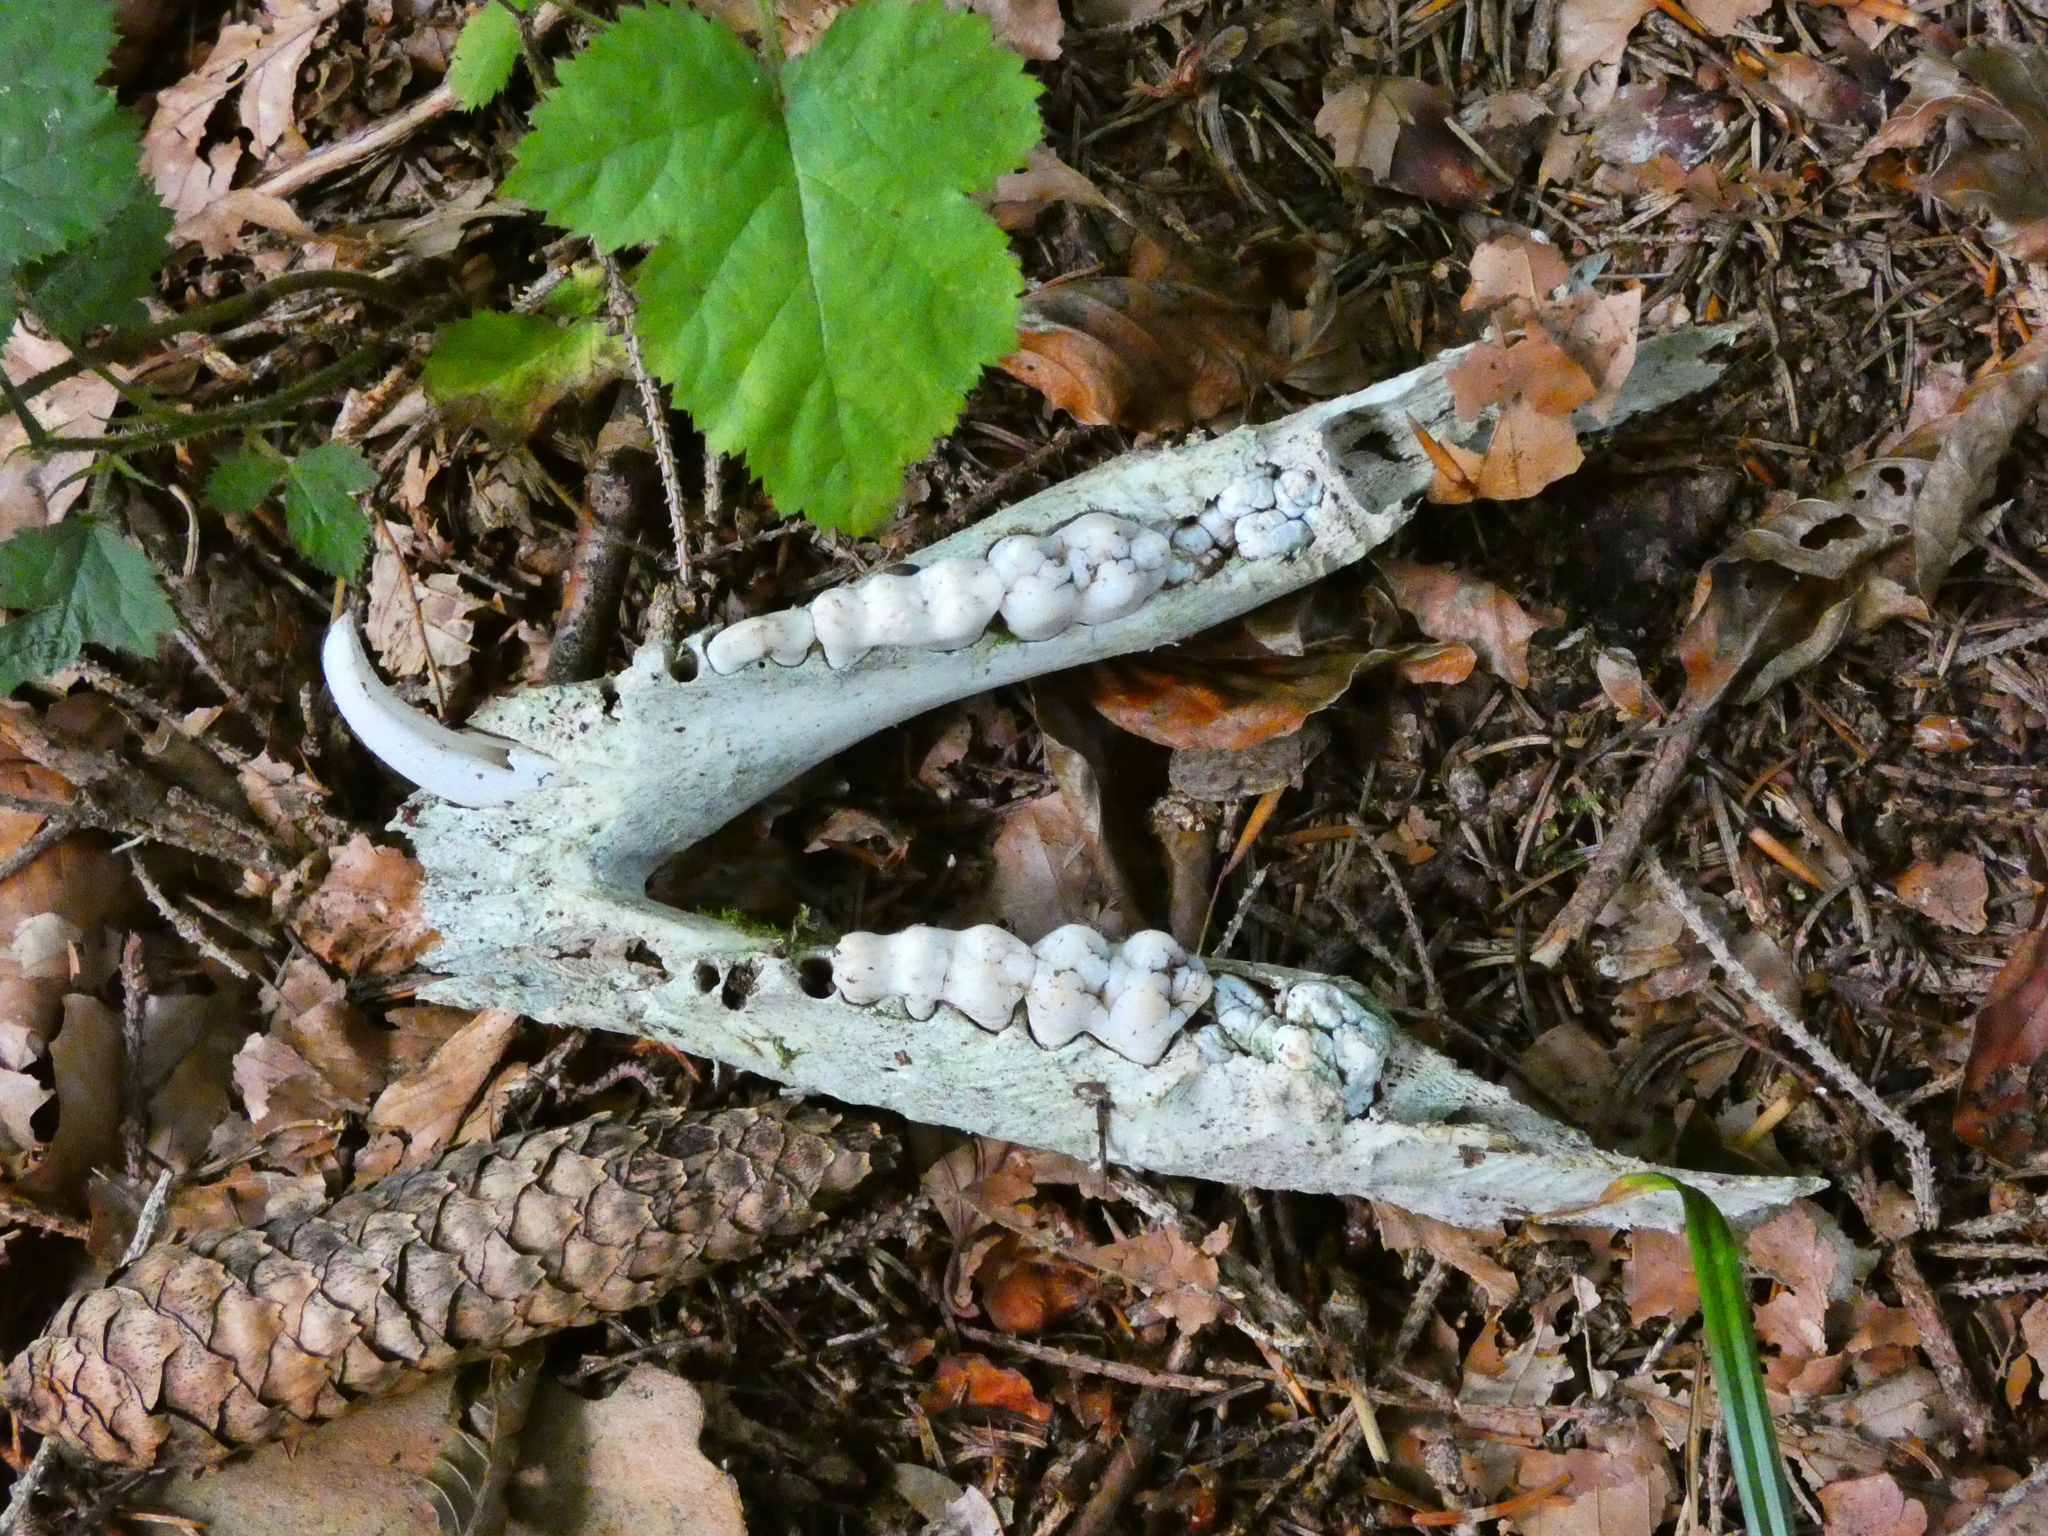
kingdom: Animalia
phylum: Chordata
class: Mammalia
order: Artiodactyla
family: Suidae
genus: Sus
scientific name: Sus scrofa
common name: Wild boar
